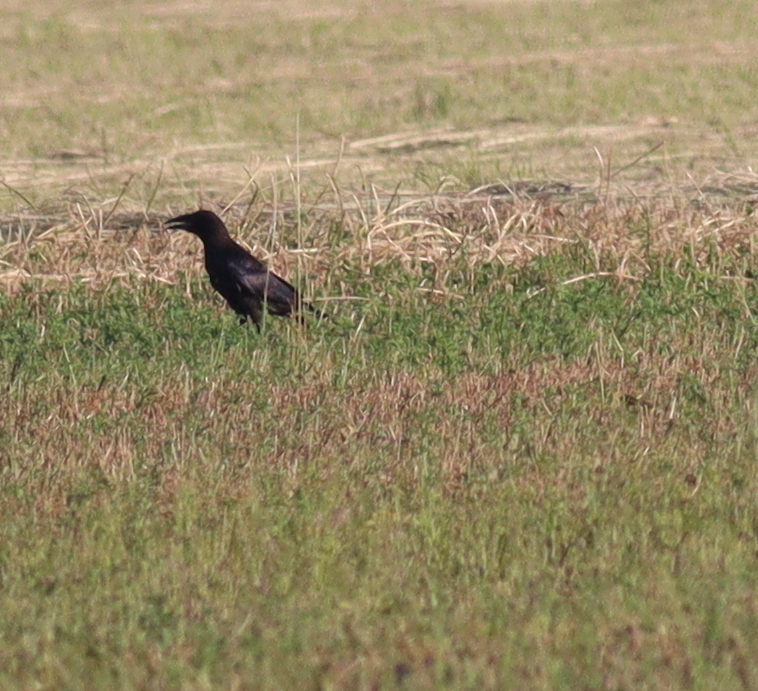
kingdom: Animalia
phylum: Chordata
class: Aves
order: Passeriformes
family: Corvidae
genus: Corvus
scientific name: Corvus corax
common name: Common raven
